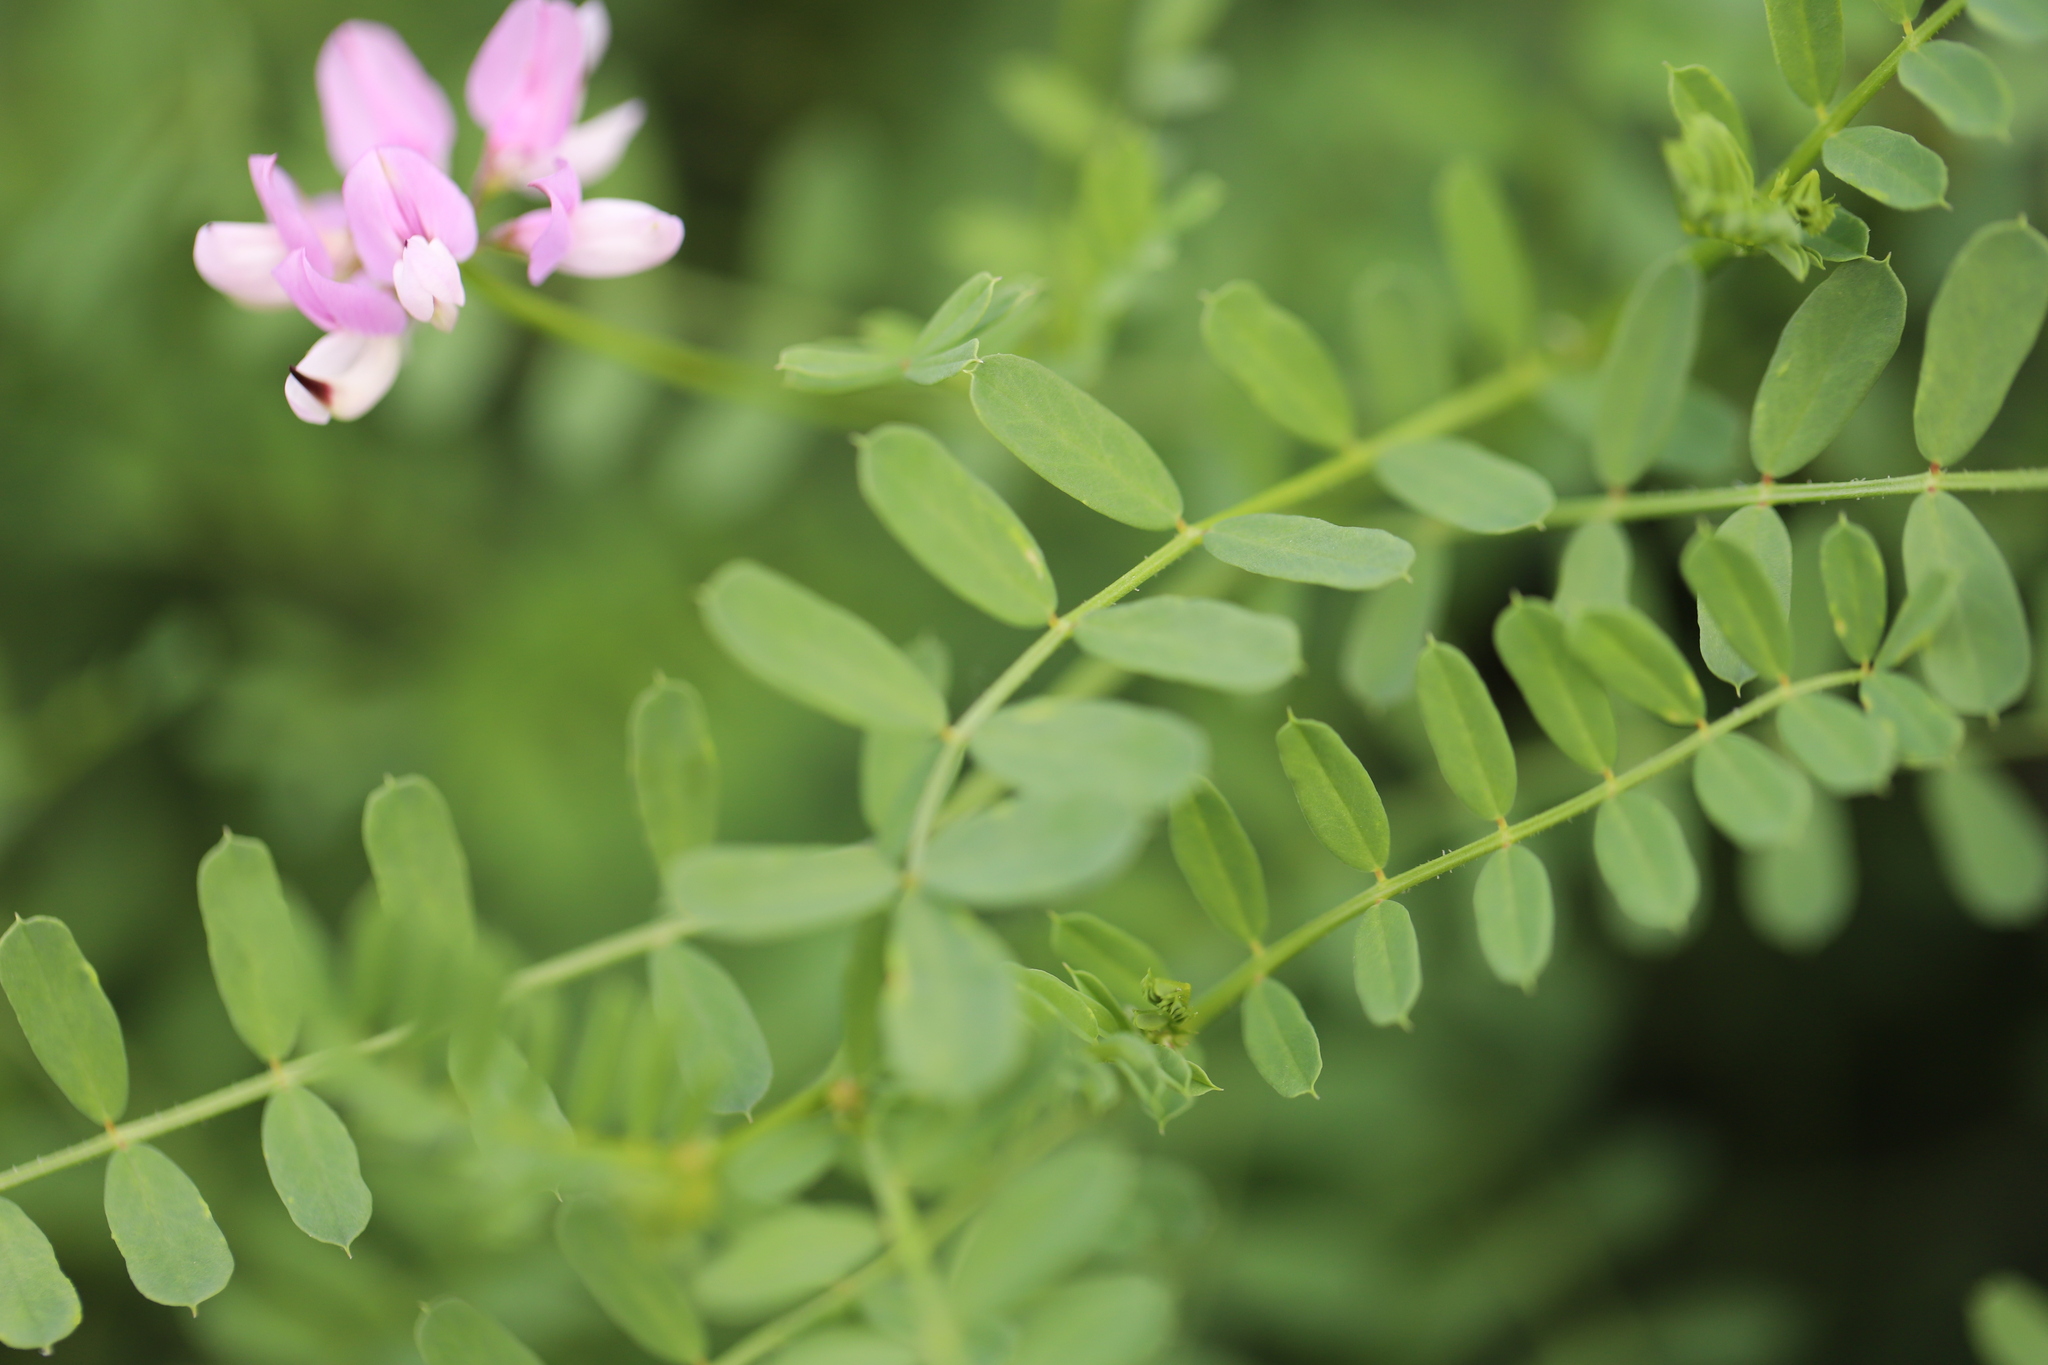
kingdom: Plantae
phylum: Tracheophyta
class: Magnoliopsida
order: Fabales
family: Fabaceae
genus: Coronilla
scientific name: Coronilla varia
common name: Crownvetch
